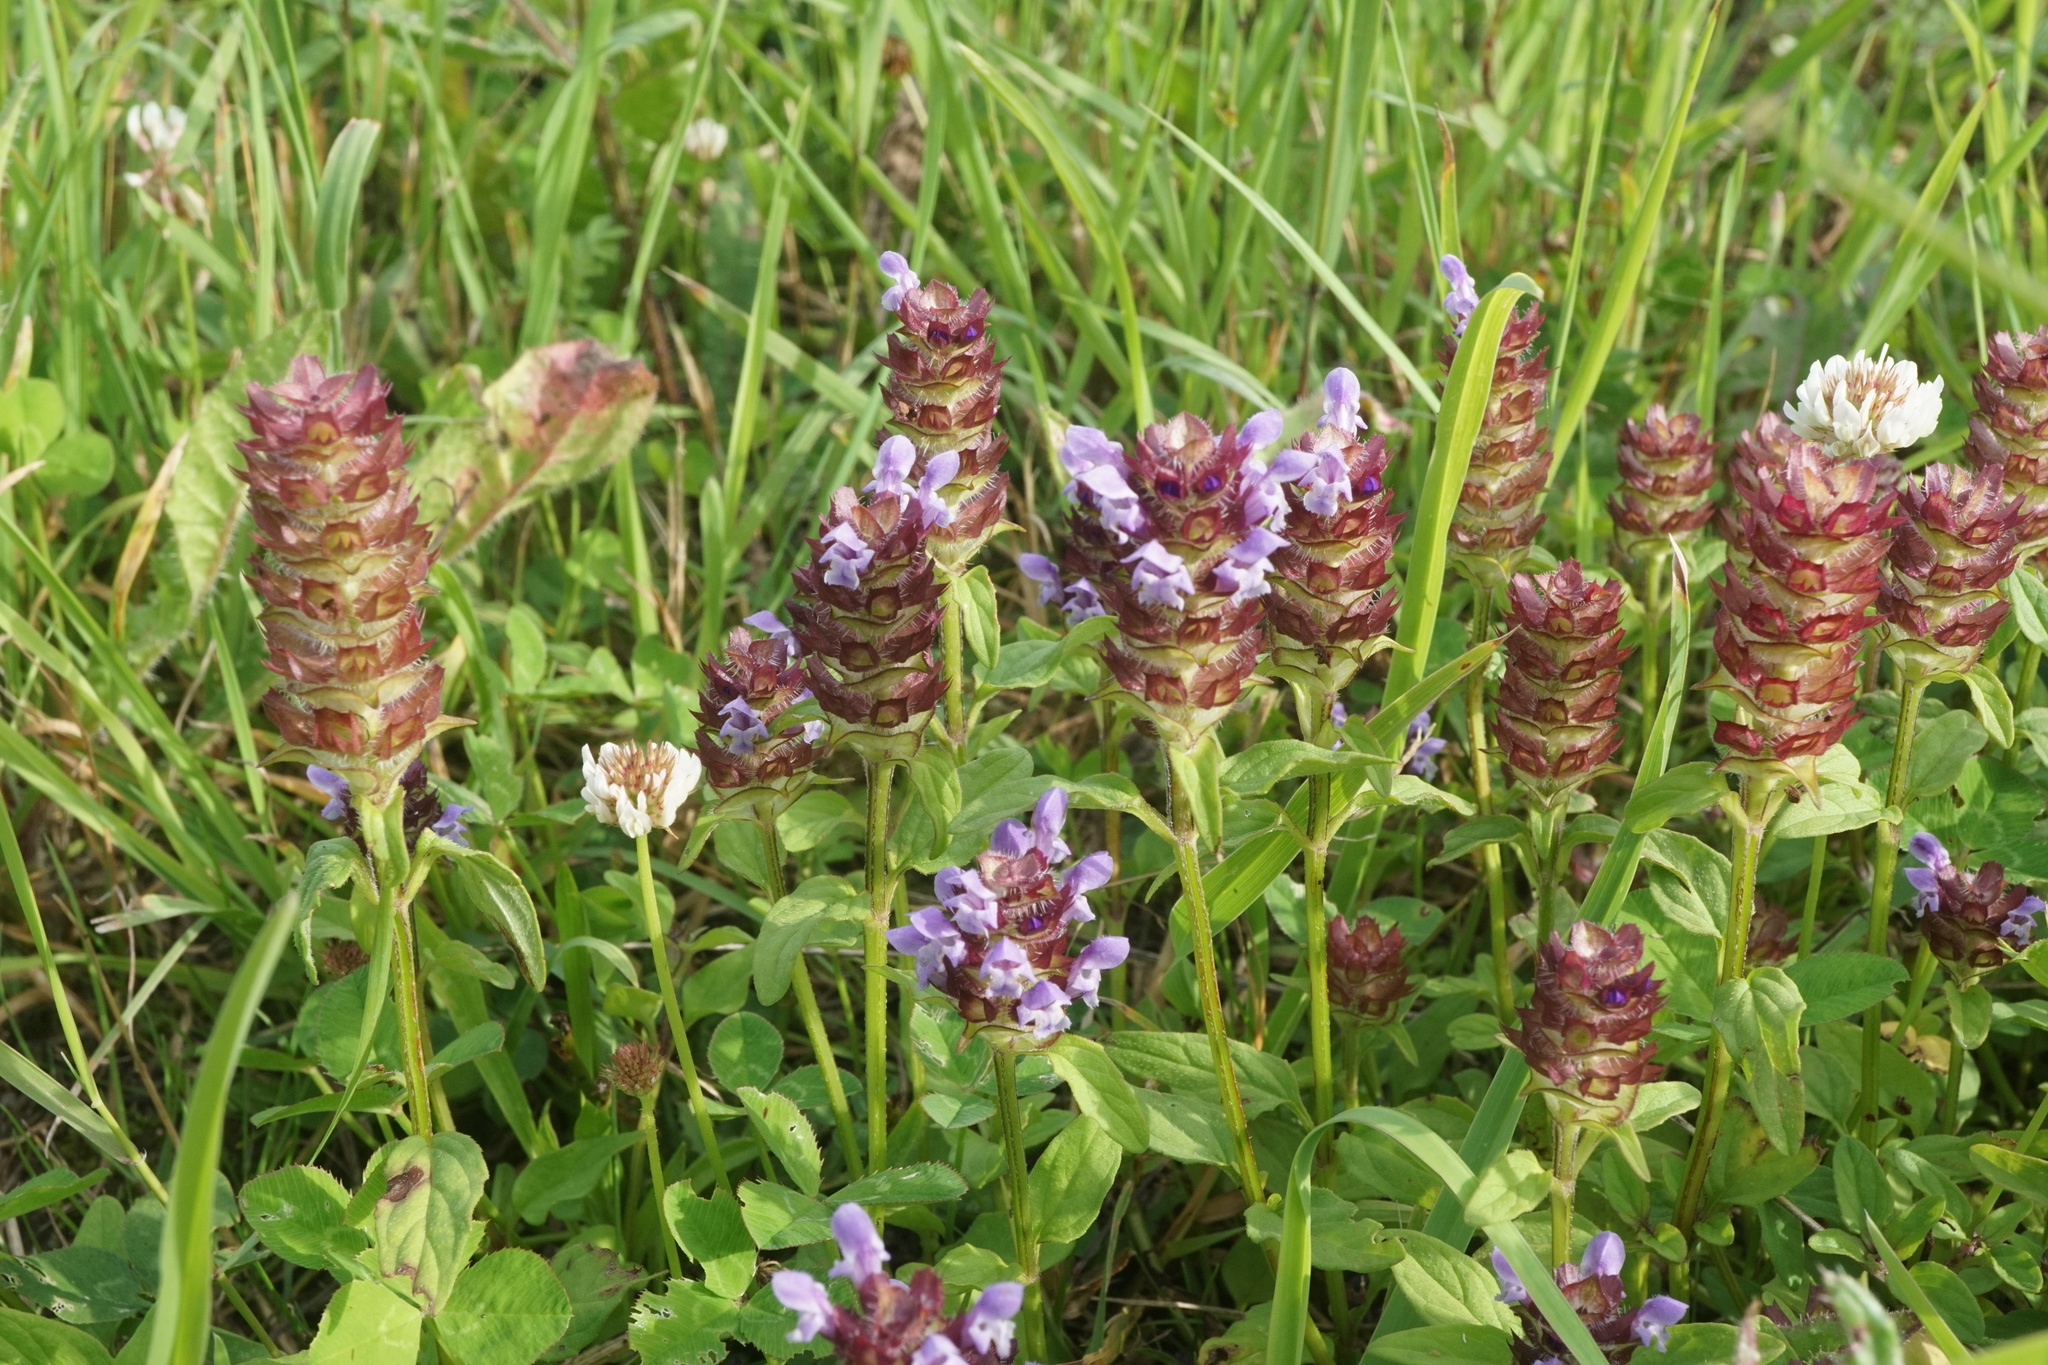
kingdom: Plantae
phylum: Tracheophyta
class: Magnoliopsida
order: Lamiales
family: Lamiaceae
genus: Prunella
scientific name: Prunella vulgaris
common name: Heal-all
